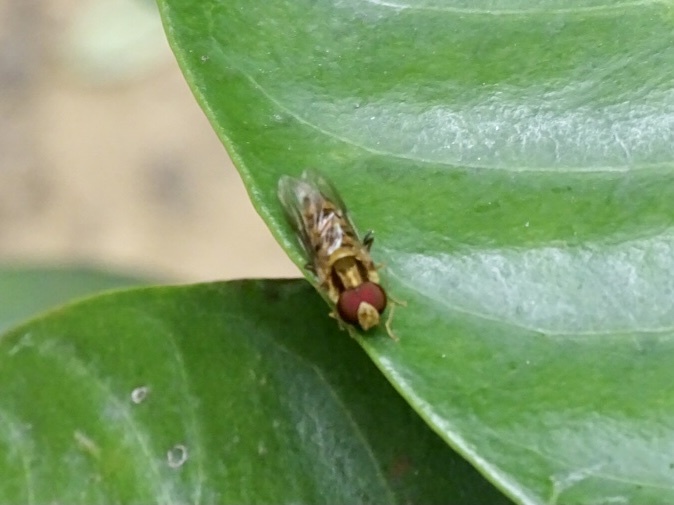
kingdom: Animalia
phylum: Arthropoda
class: Insecta
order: Diptera
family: Syrphidae
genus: Episyrphus
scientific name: Episyrphus balteatus
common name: Marmalade hoverfly
